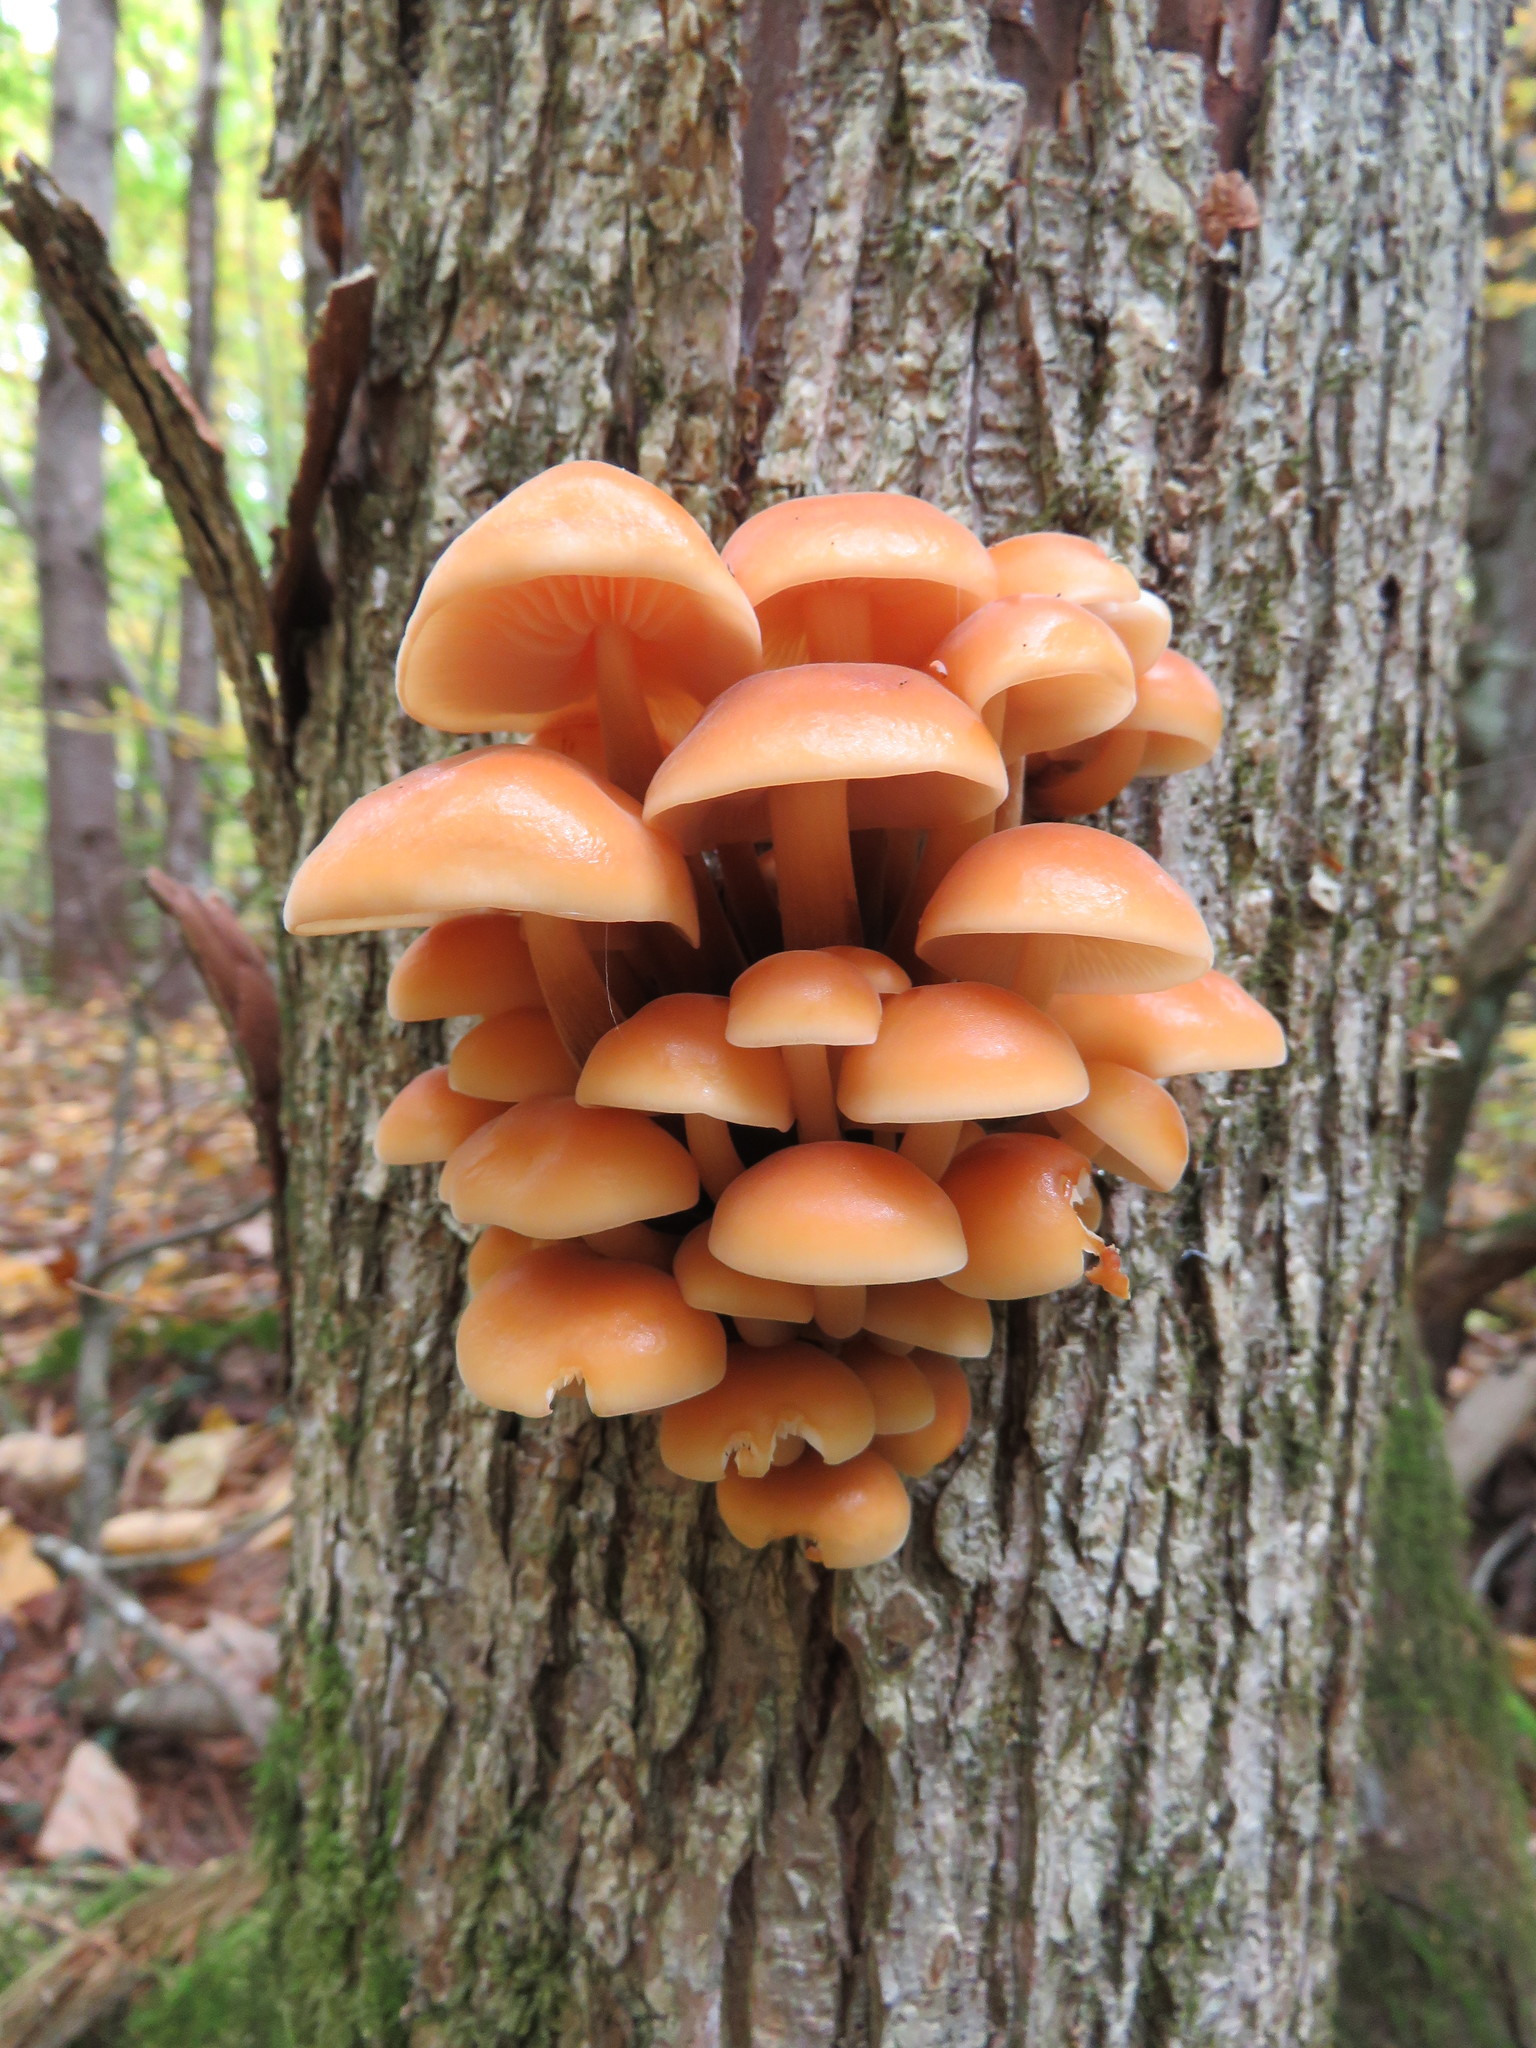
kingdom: Fungi
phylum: Basidiomycota
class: Agaricomycetes
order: Agaricales
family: Physalacriaceae
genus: Flammulina
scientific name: Flammulina velutipes
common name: Velvet shank
